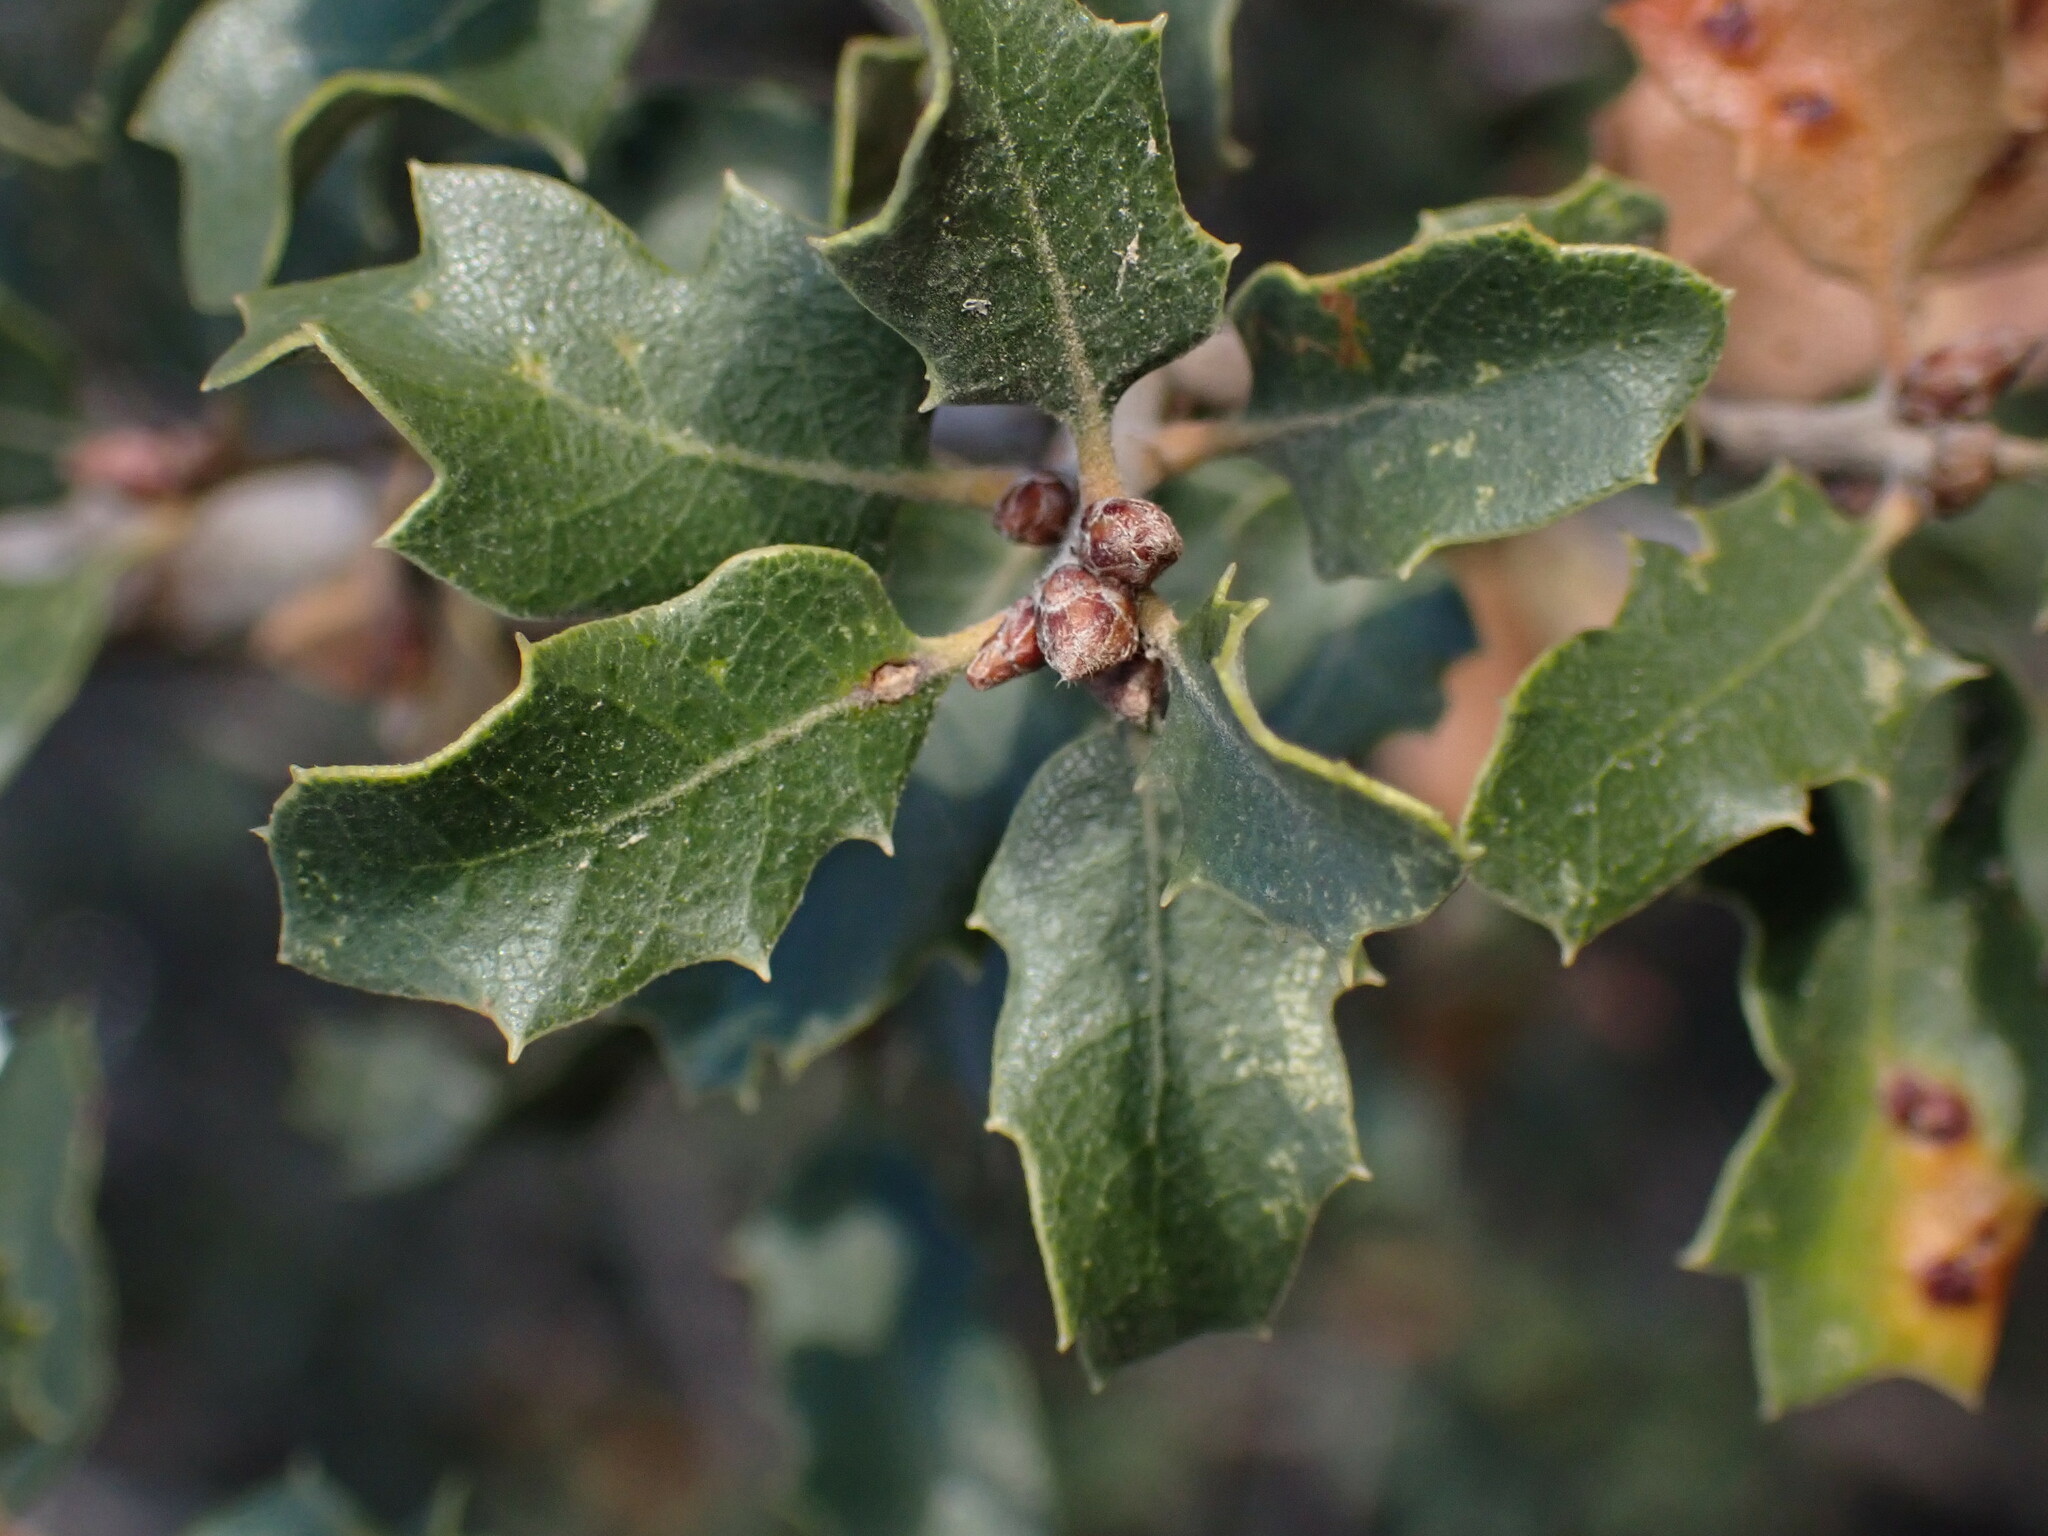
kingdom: Plantae
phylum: Tracheophyta
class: Magnoliopsida
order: Fagales
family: Fagaceae
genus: Quercus
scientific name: Quercus berberidifolia
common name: California scrub oak
